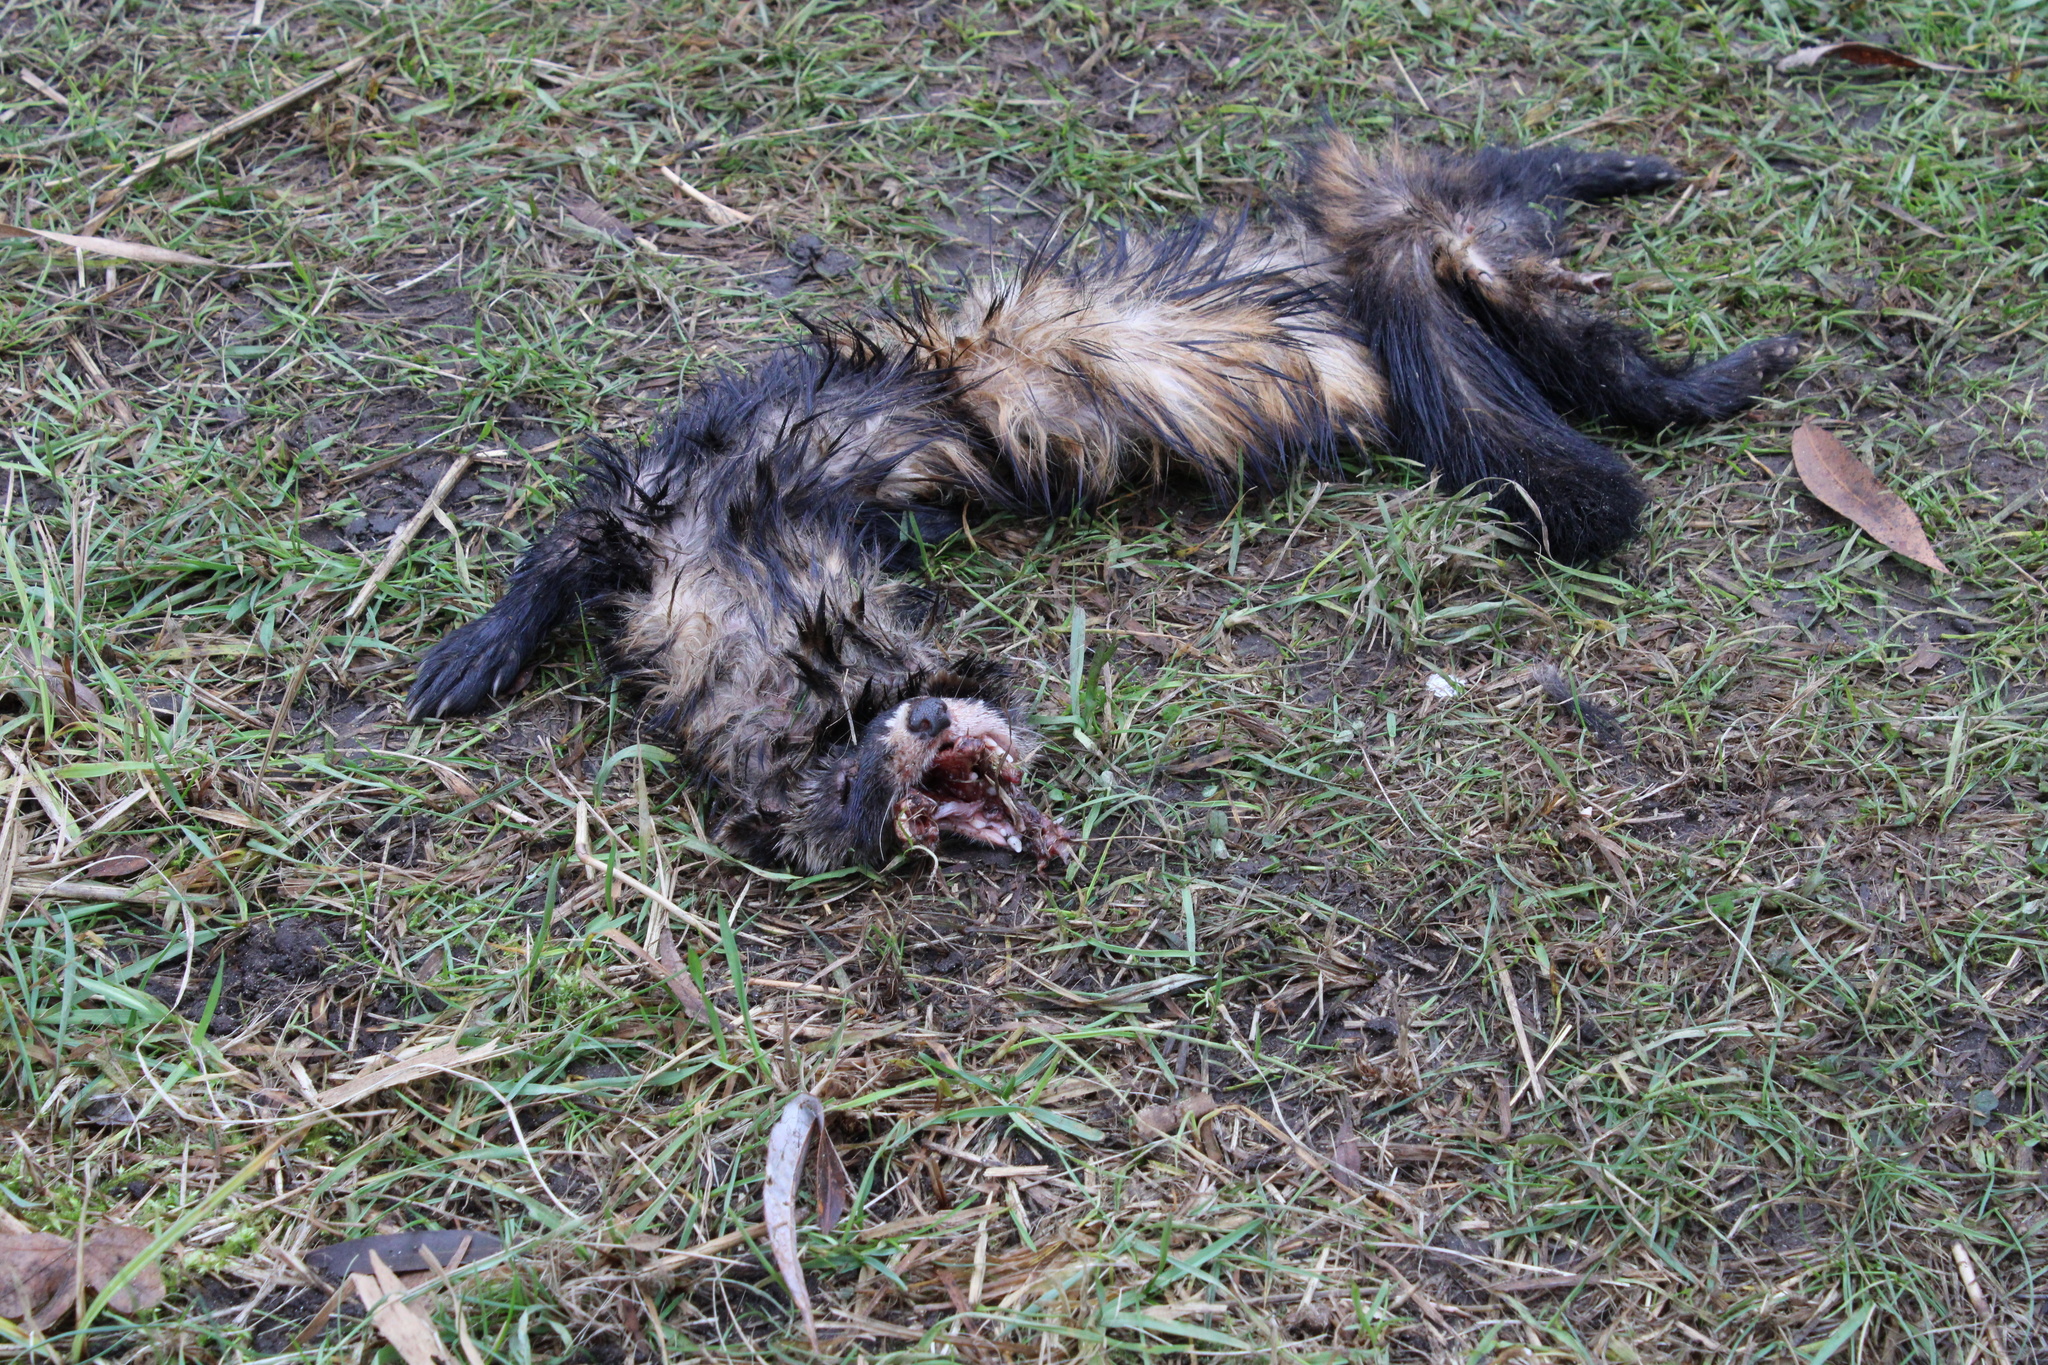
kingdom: Animalia
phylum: Chordata
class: Mammalia
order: Carnivora
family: Mustelidae
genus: Mustela
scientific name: Mustela putorius
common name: European polecat
